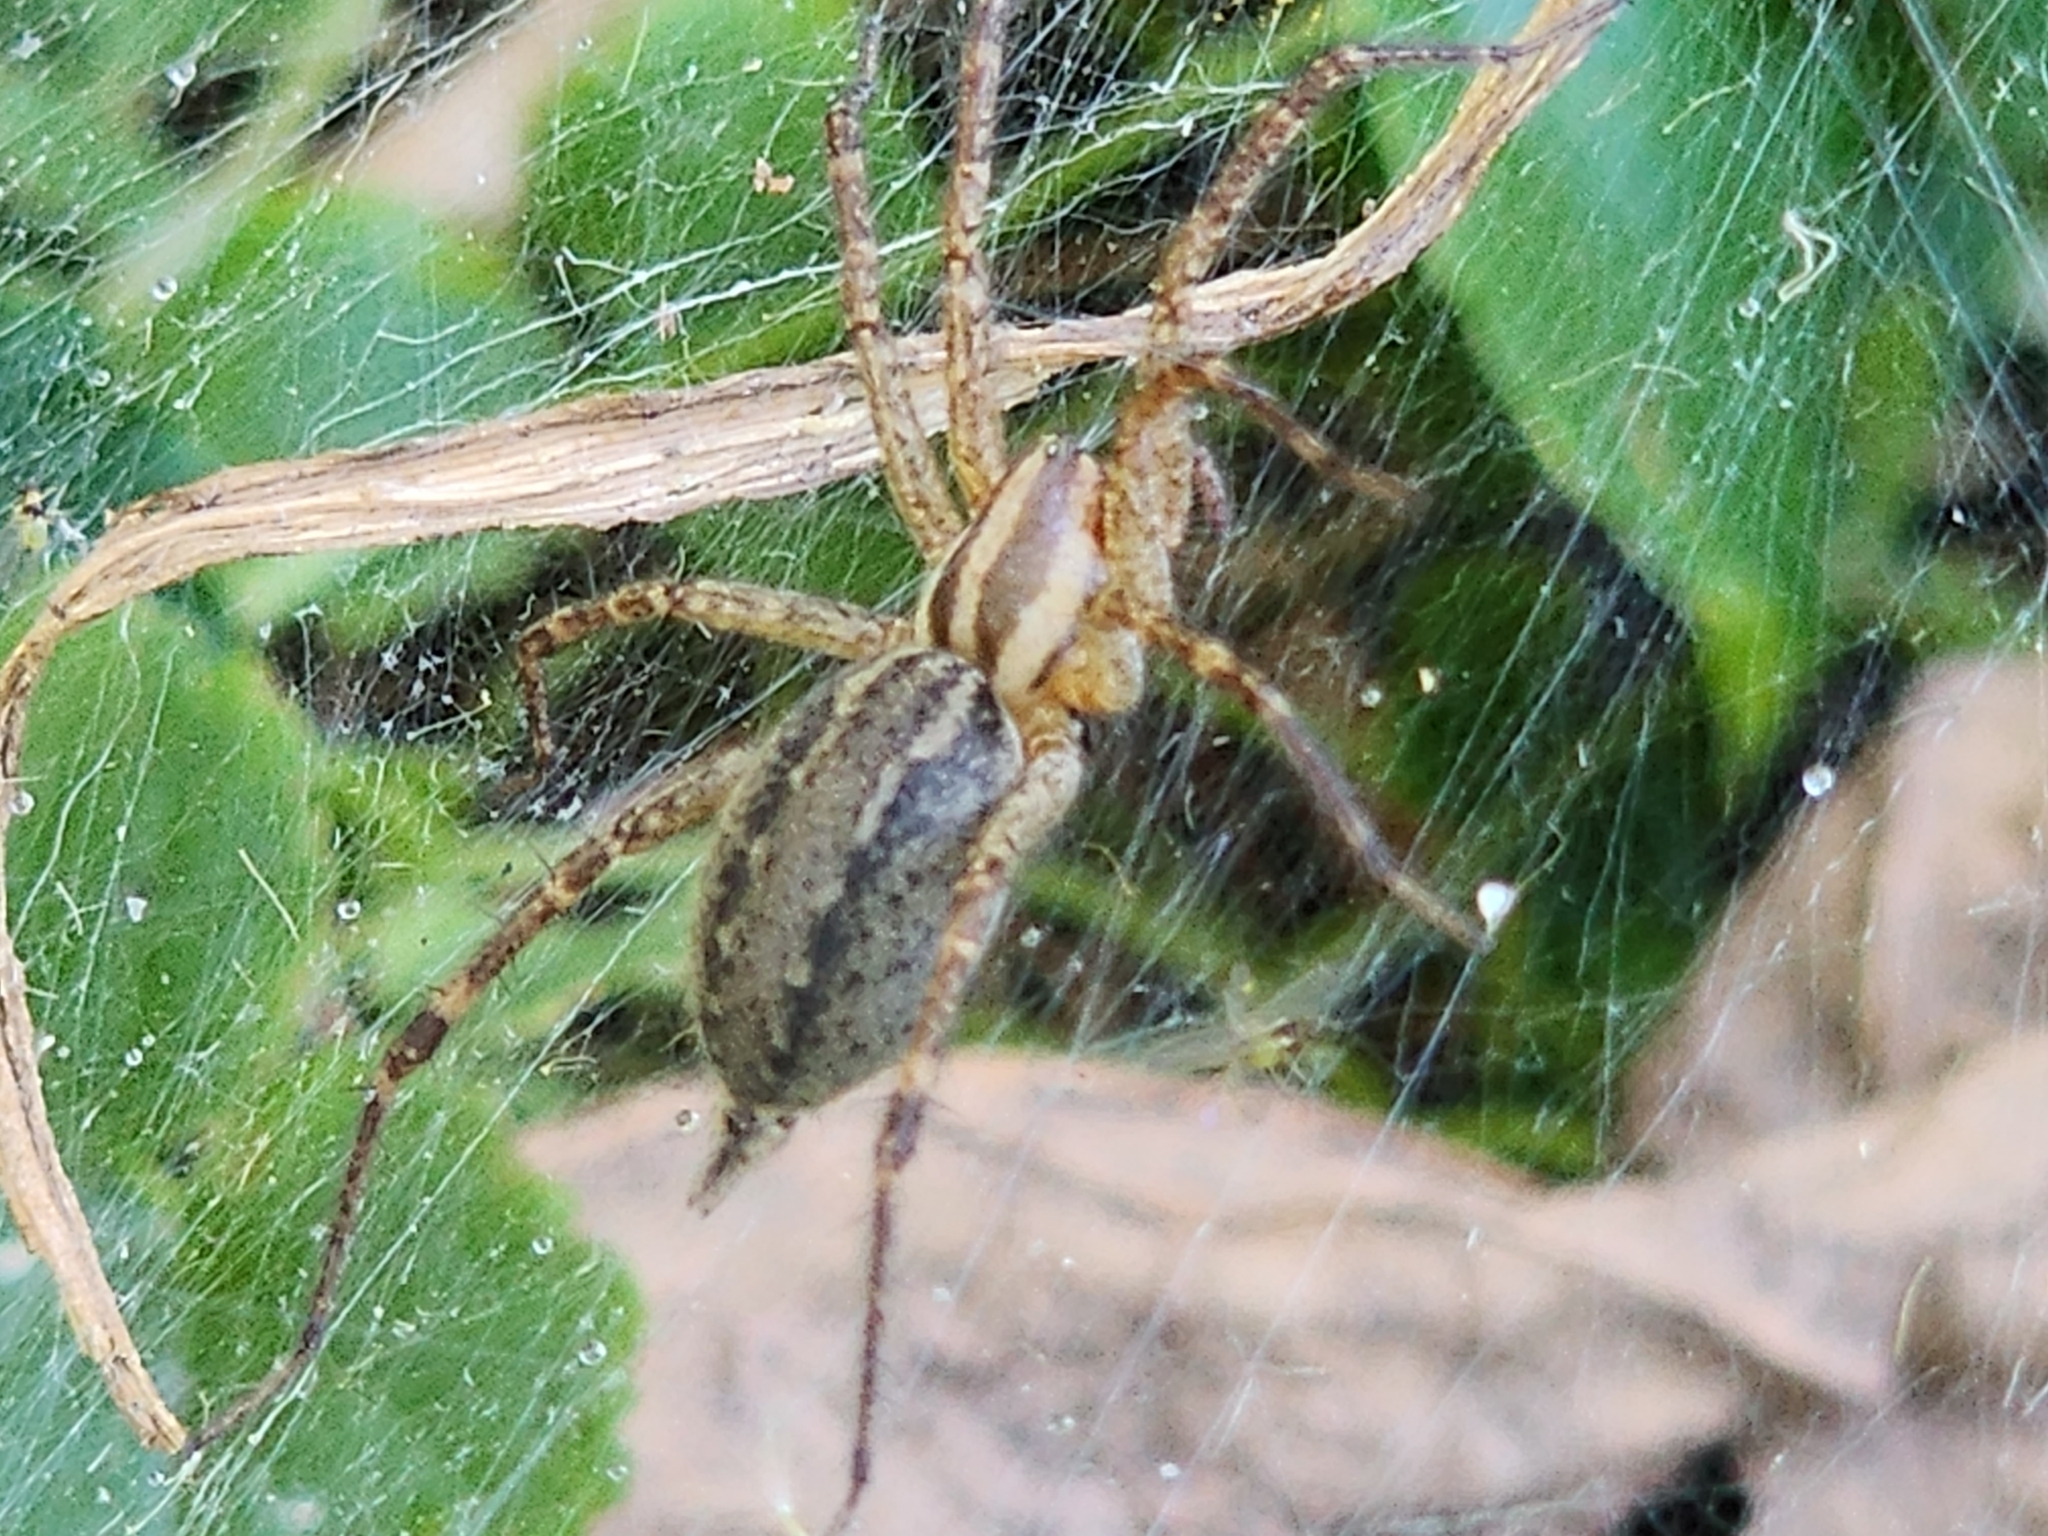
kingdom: Animalia
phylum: Arthropoda
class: Arachnida
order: Araneae
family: Agelenidae
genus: Agelenopsis
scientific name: Agelenopsis
